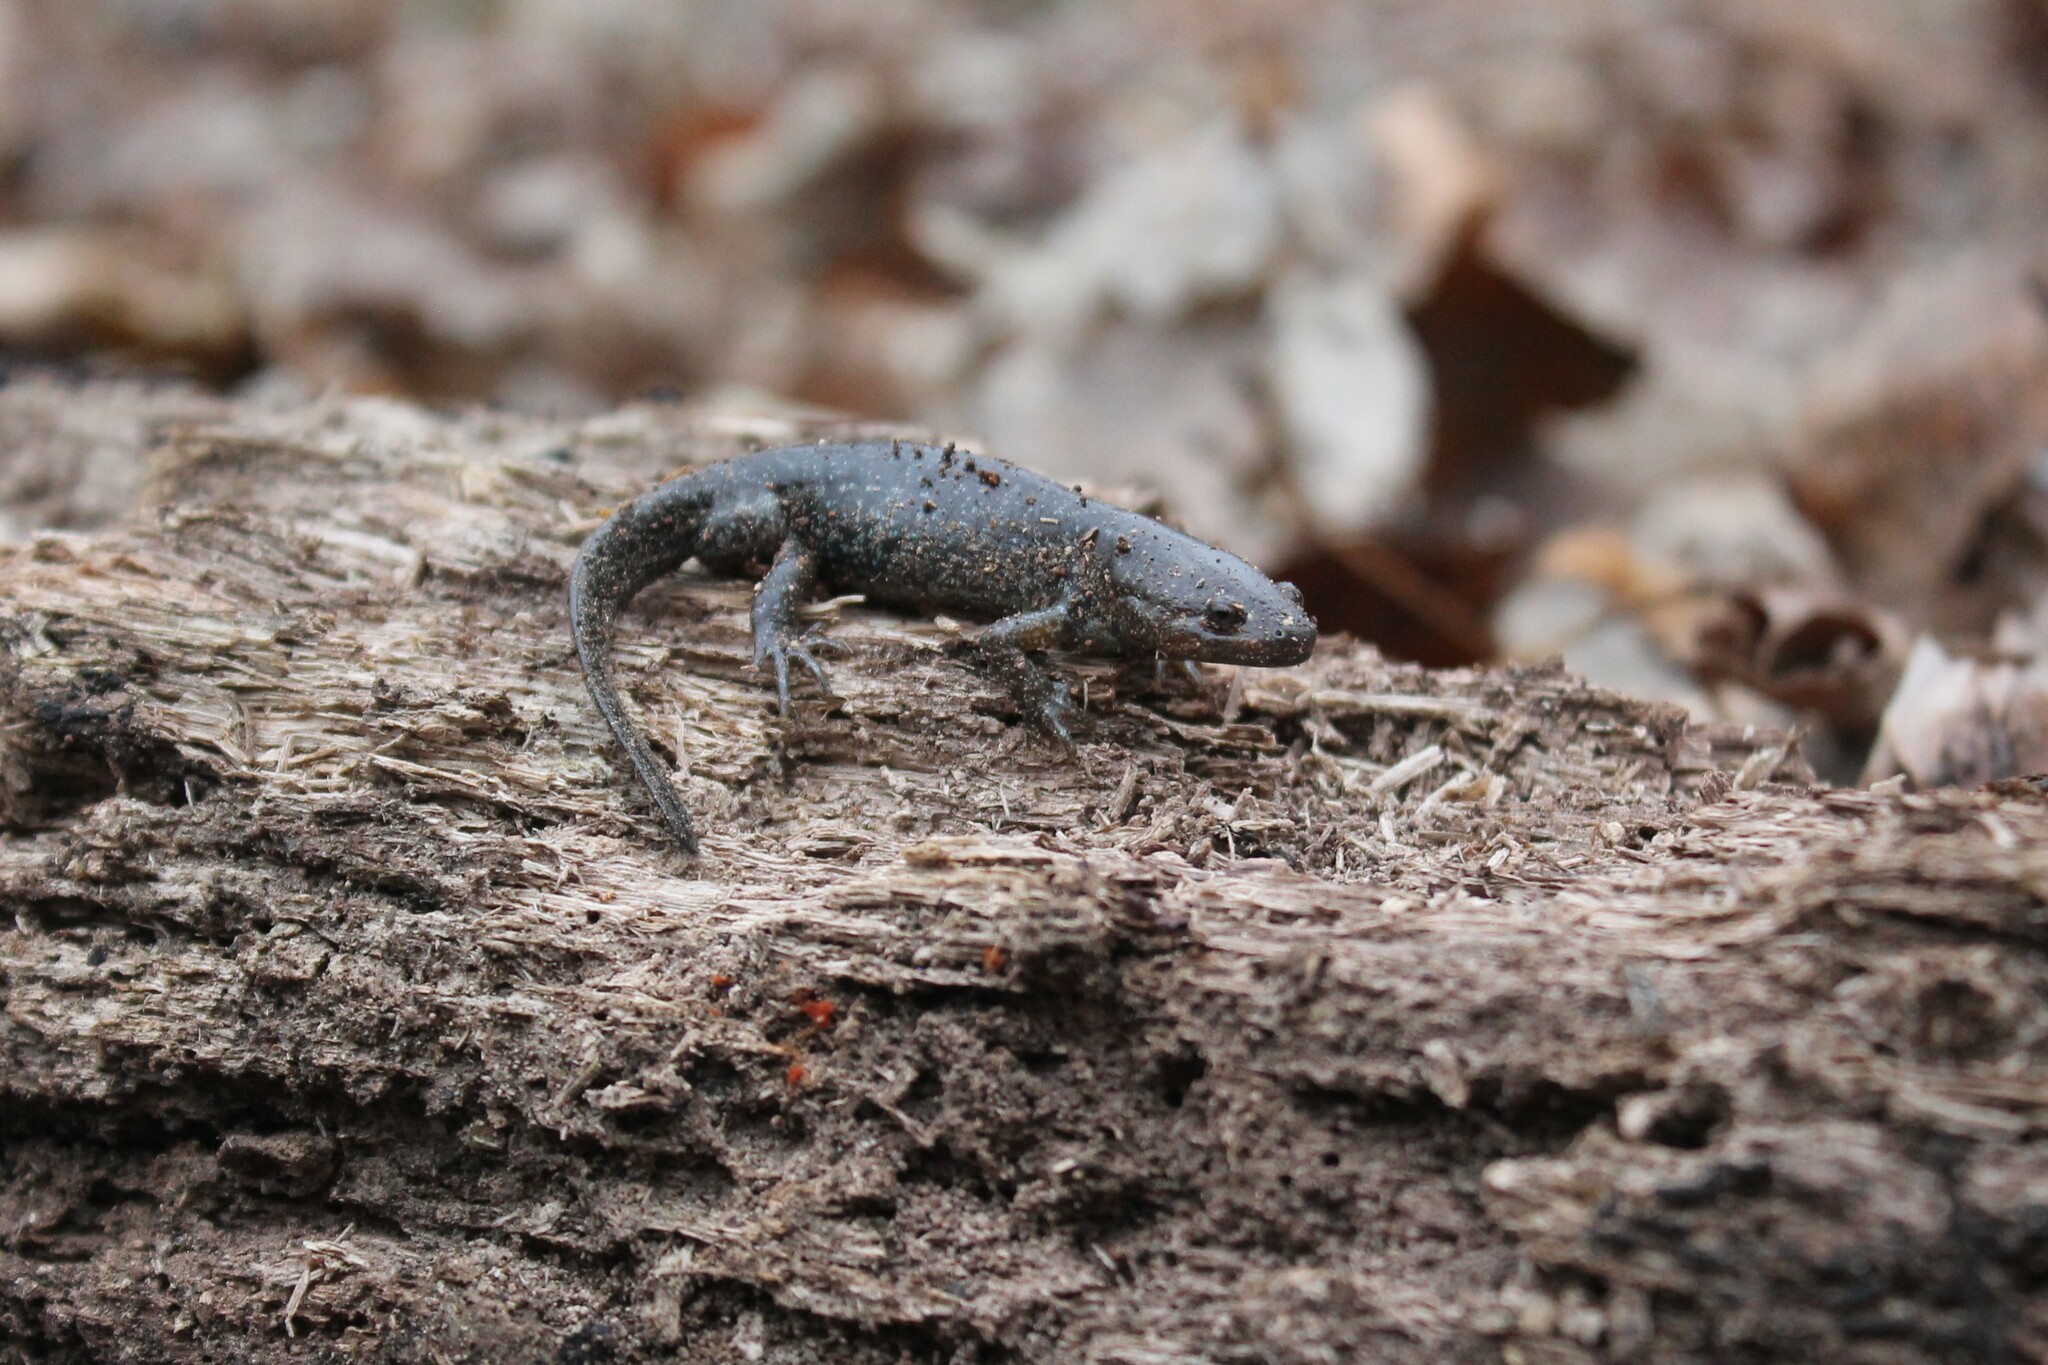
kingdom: Animalia
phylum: Chordata
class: Amphibia
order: Caudata
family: Ambystomatidae
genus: Ambystoma
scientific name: Ambystoma talpoideum
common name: Mole salamander
